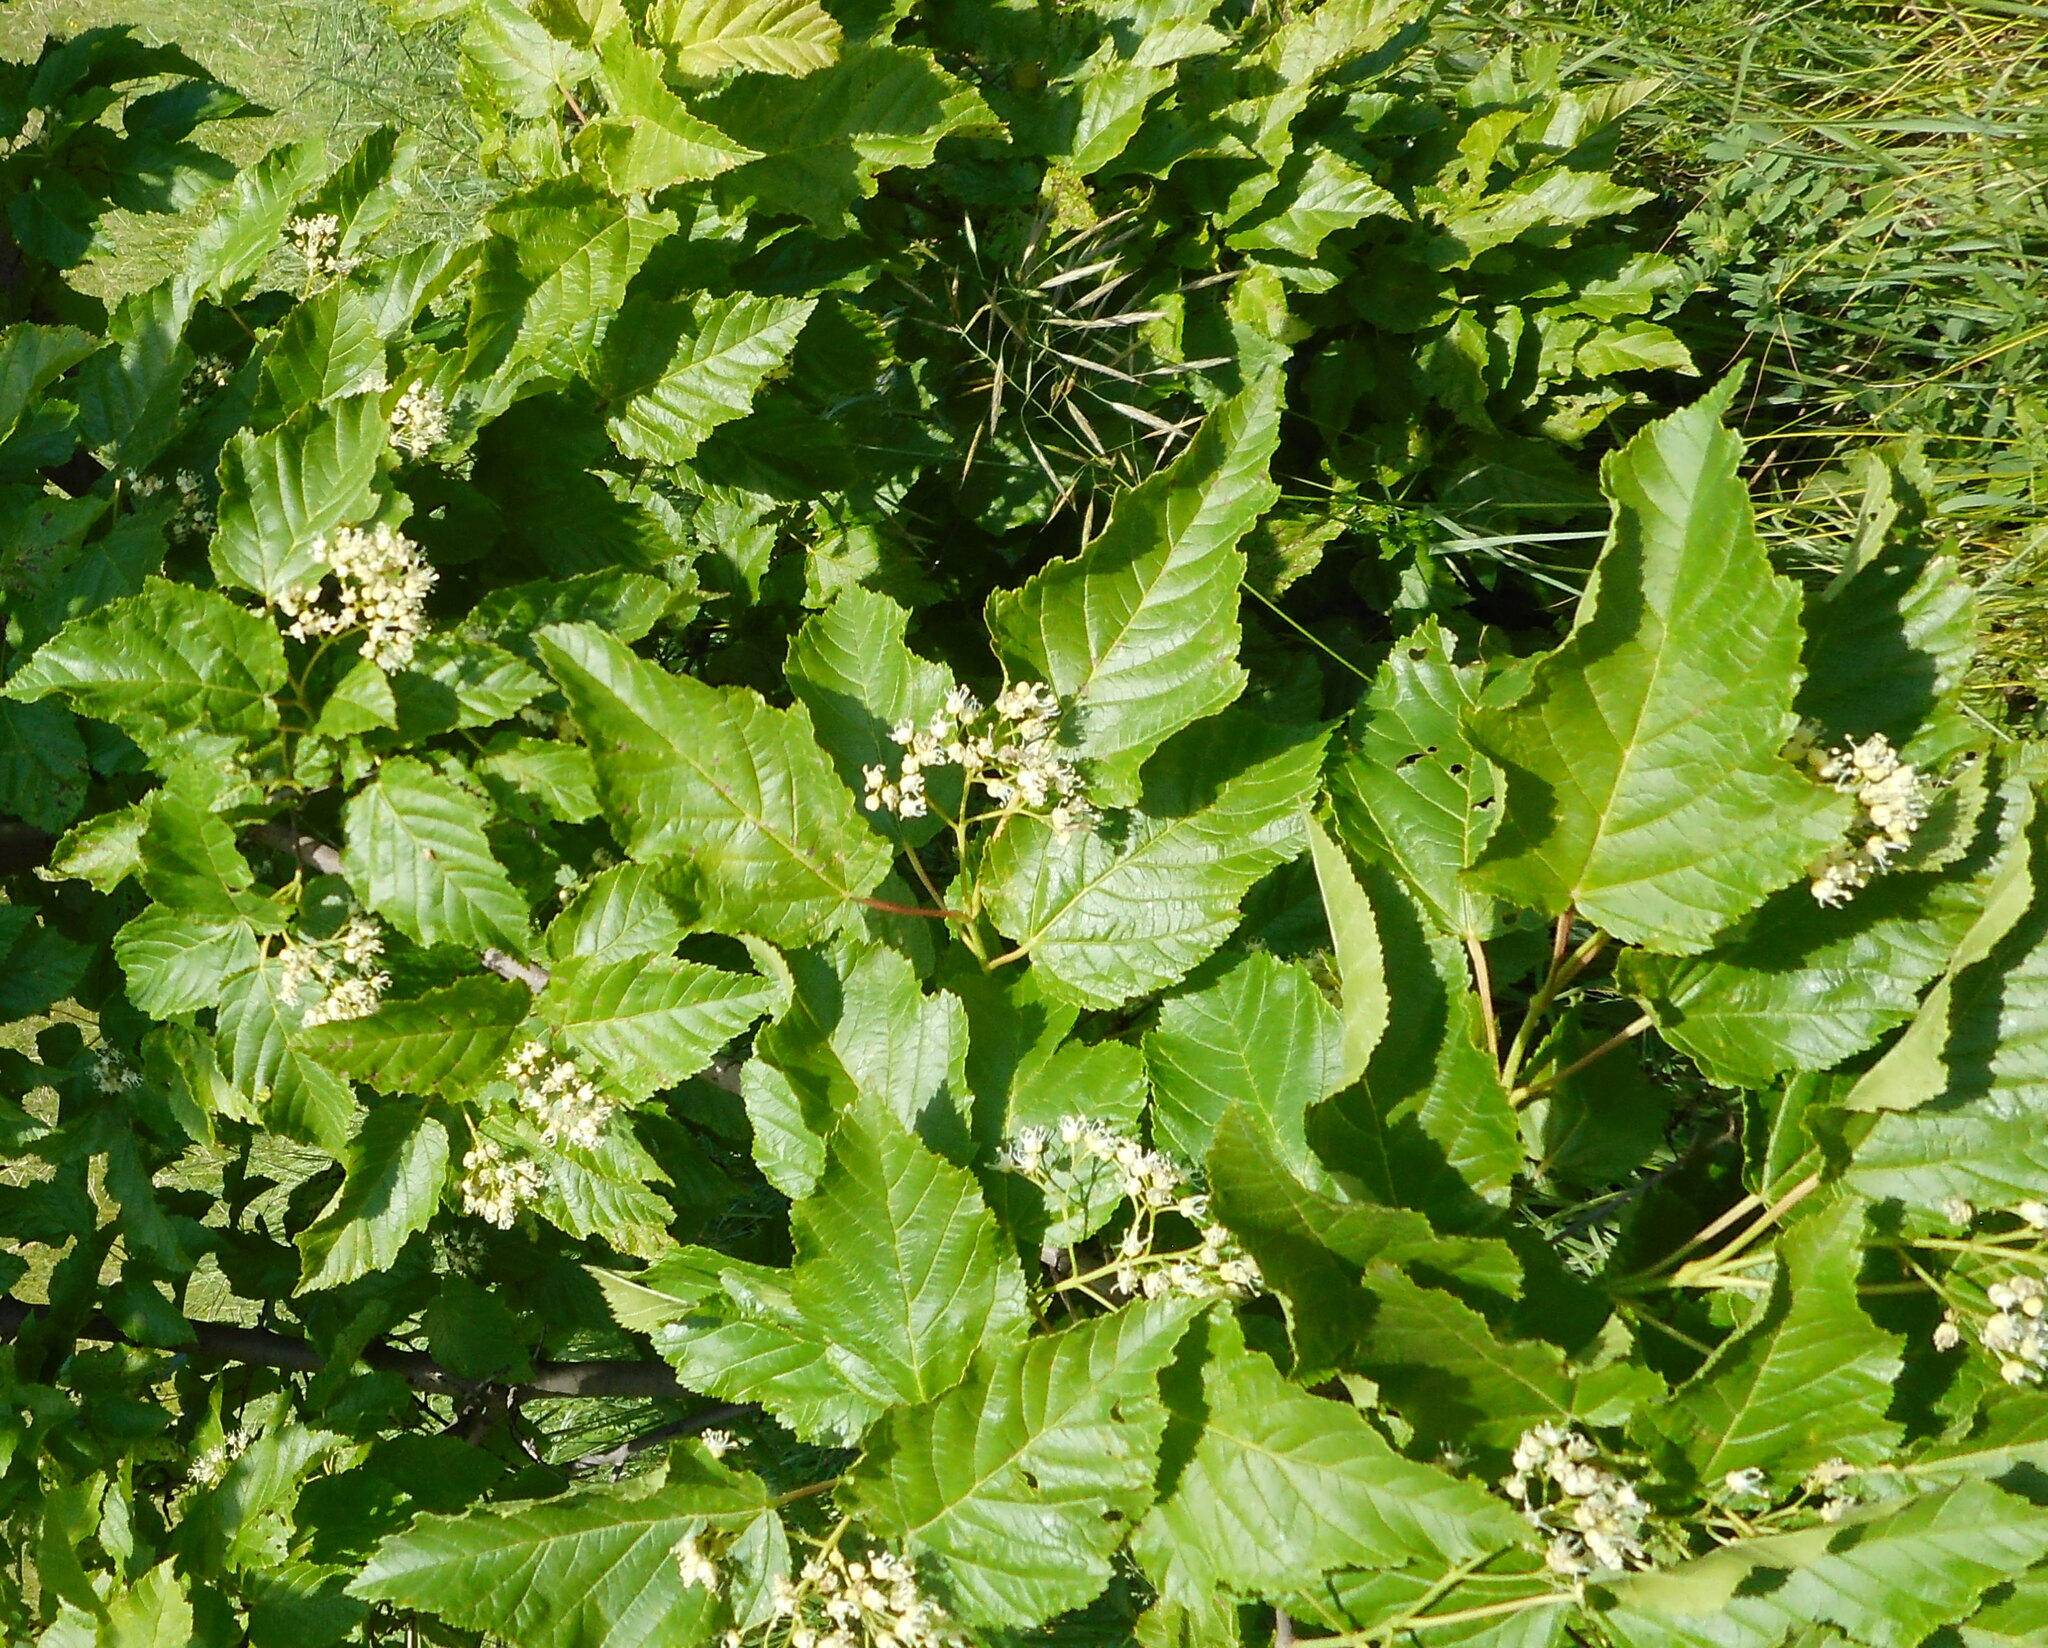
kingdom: Plantae
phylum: Tracheophyta
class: Magnoliopsida
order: Sapindales
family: Sapindaceae
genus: Acer
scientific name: Acer tataricum
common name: Tartar maple
